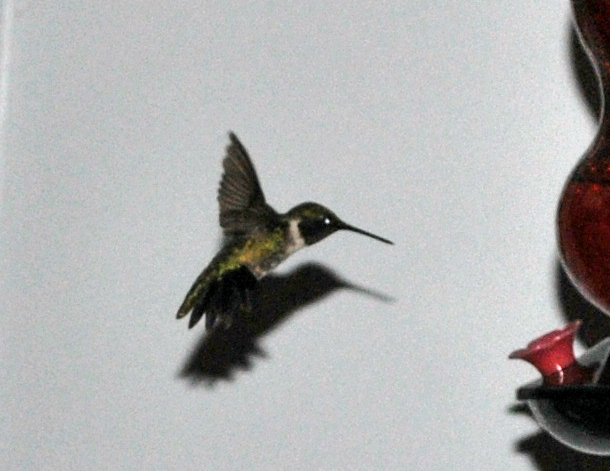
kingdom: Animalia
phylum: Chordata
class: Aves
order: Apodiformes
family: Trochilidae
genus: Archilochus
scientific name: Archilochus colubris
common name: Ruby-throated hummingbird
